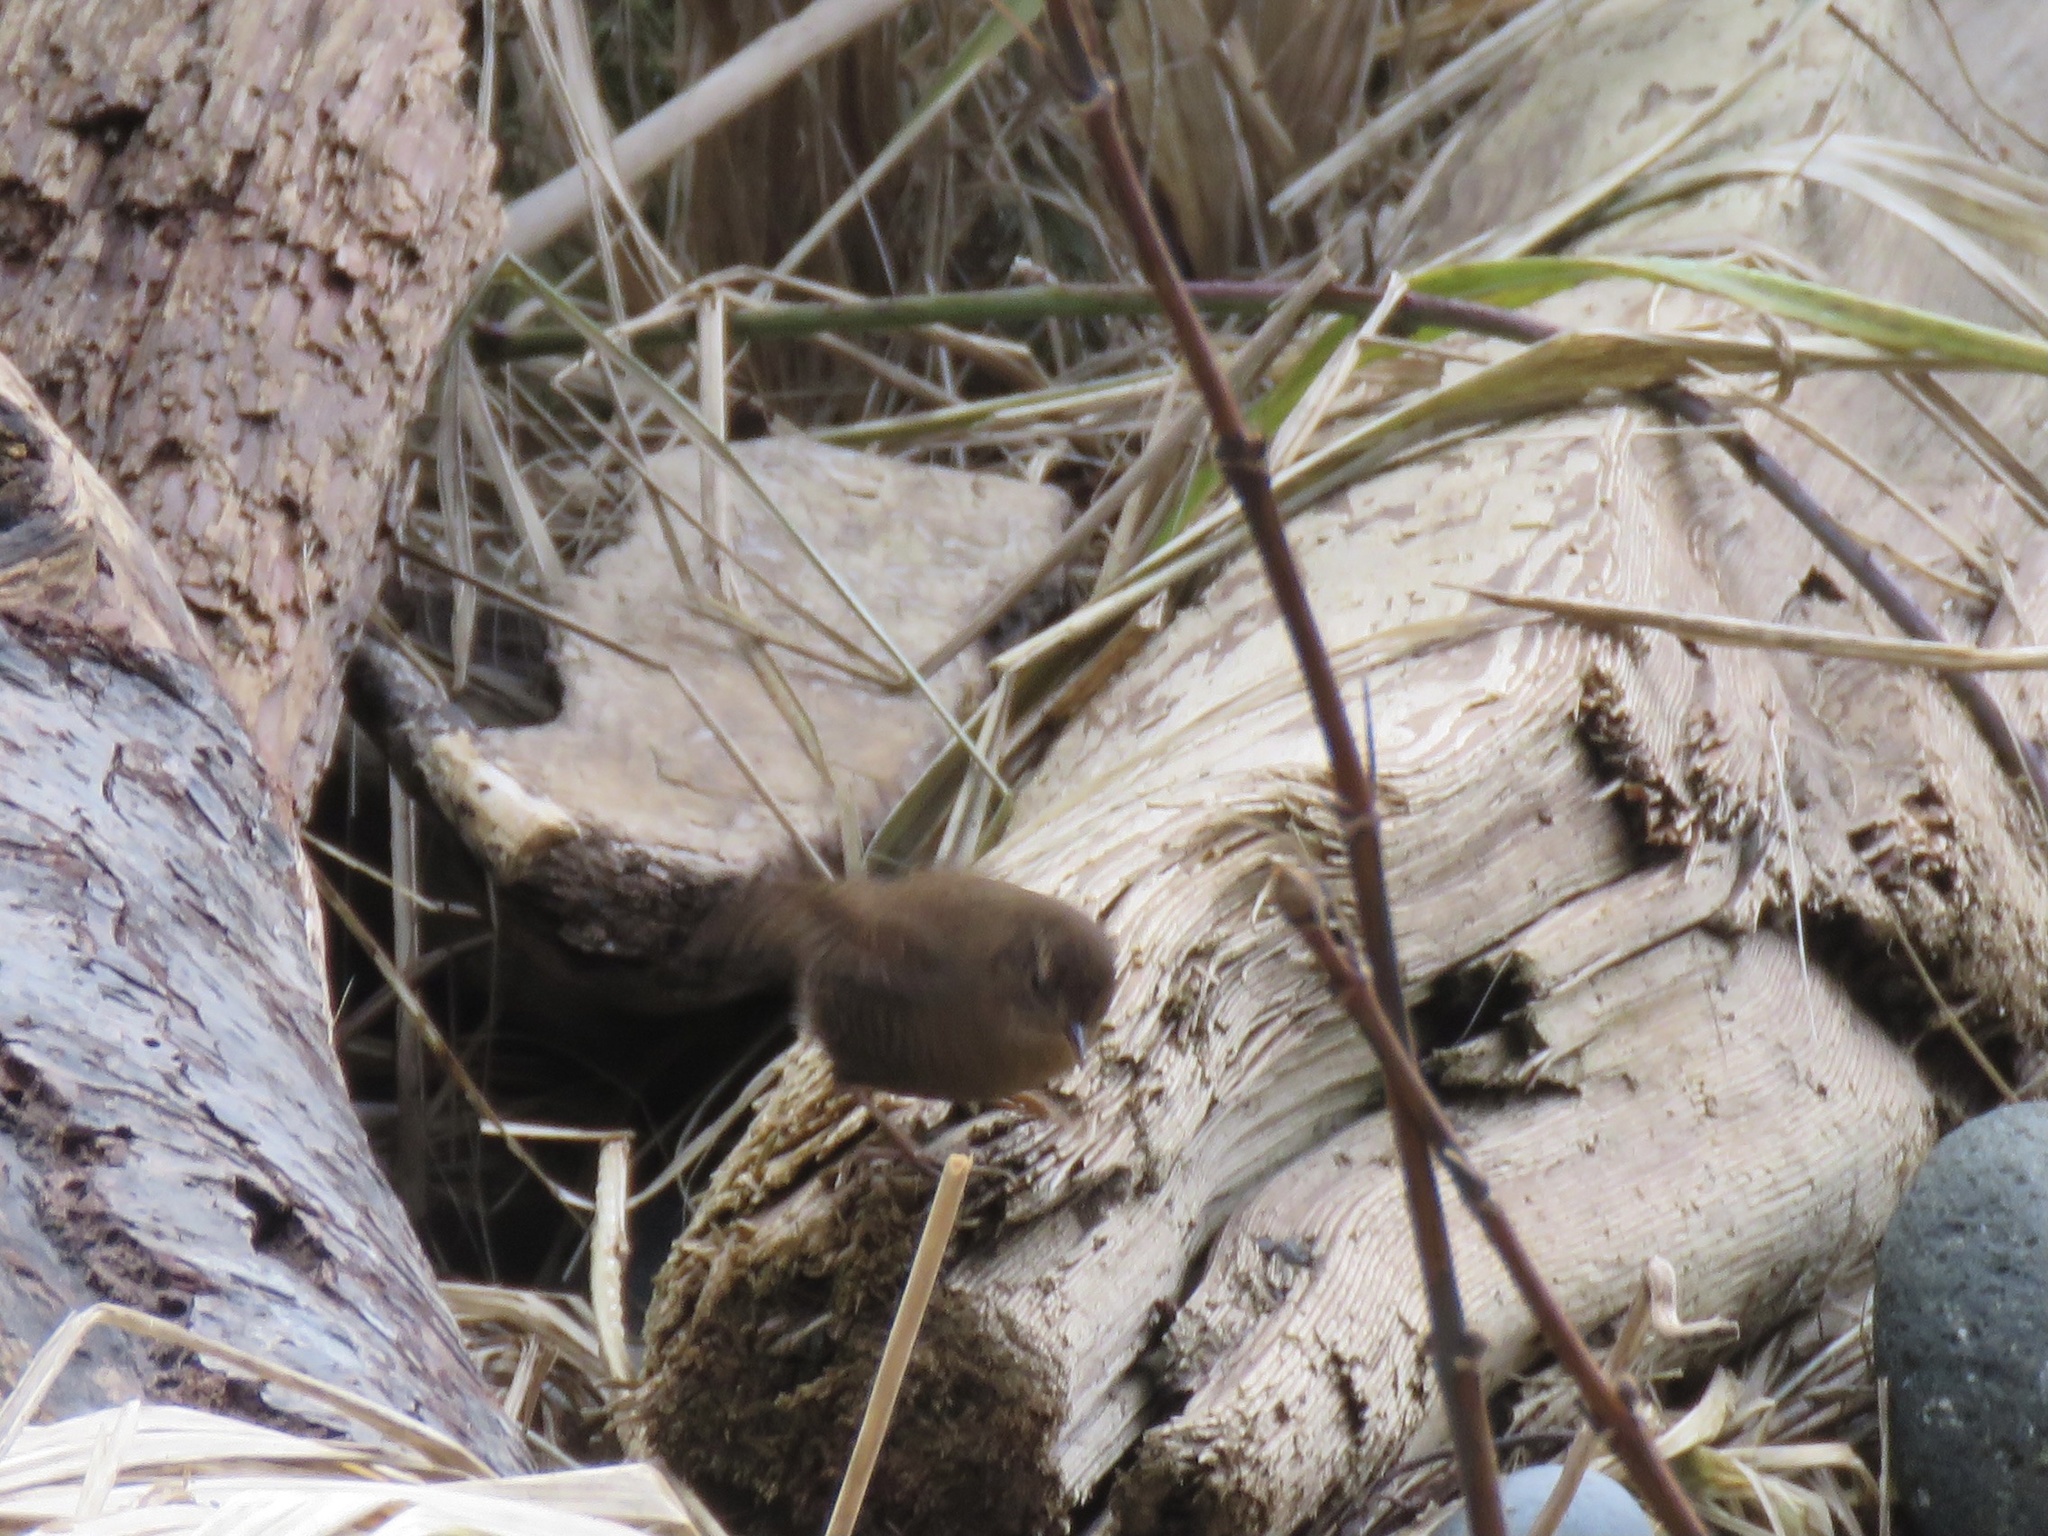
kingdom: Animalia
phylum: Chordata
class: Aves
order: Passeriformes
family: Troglodytidae
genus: Troglodytes
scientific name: Troglodytes pacificus
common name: Pacific wren
